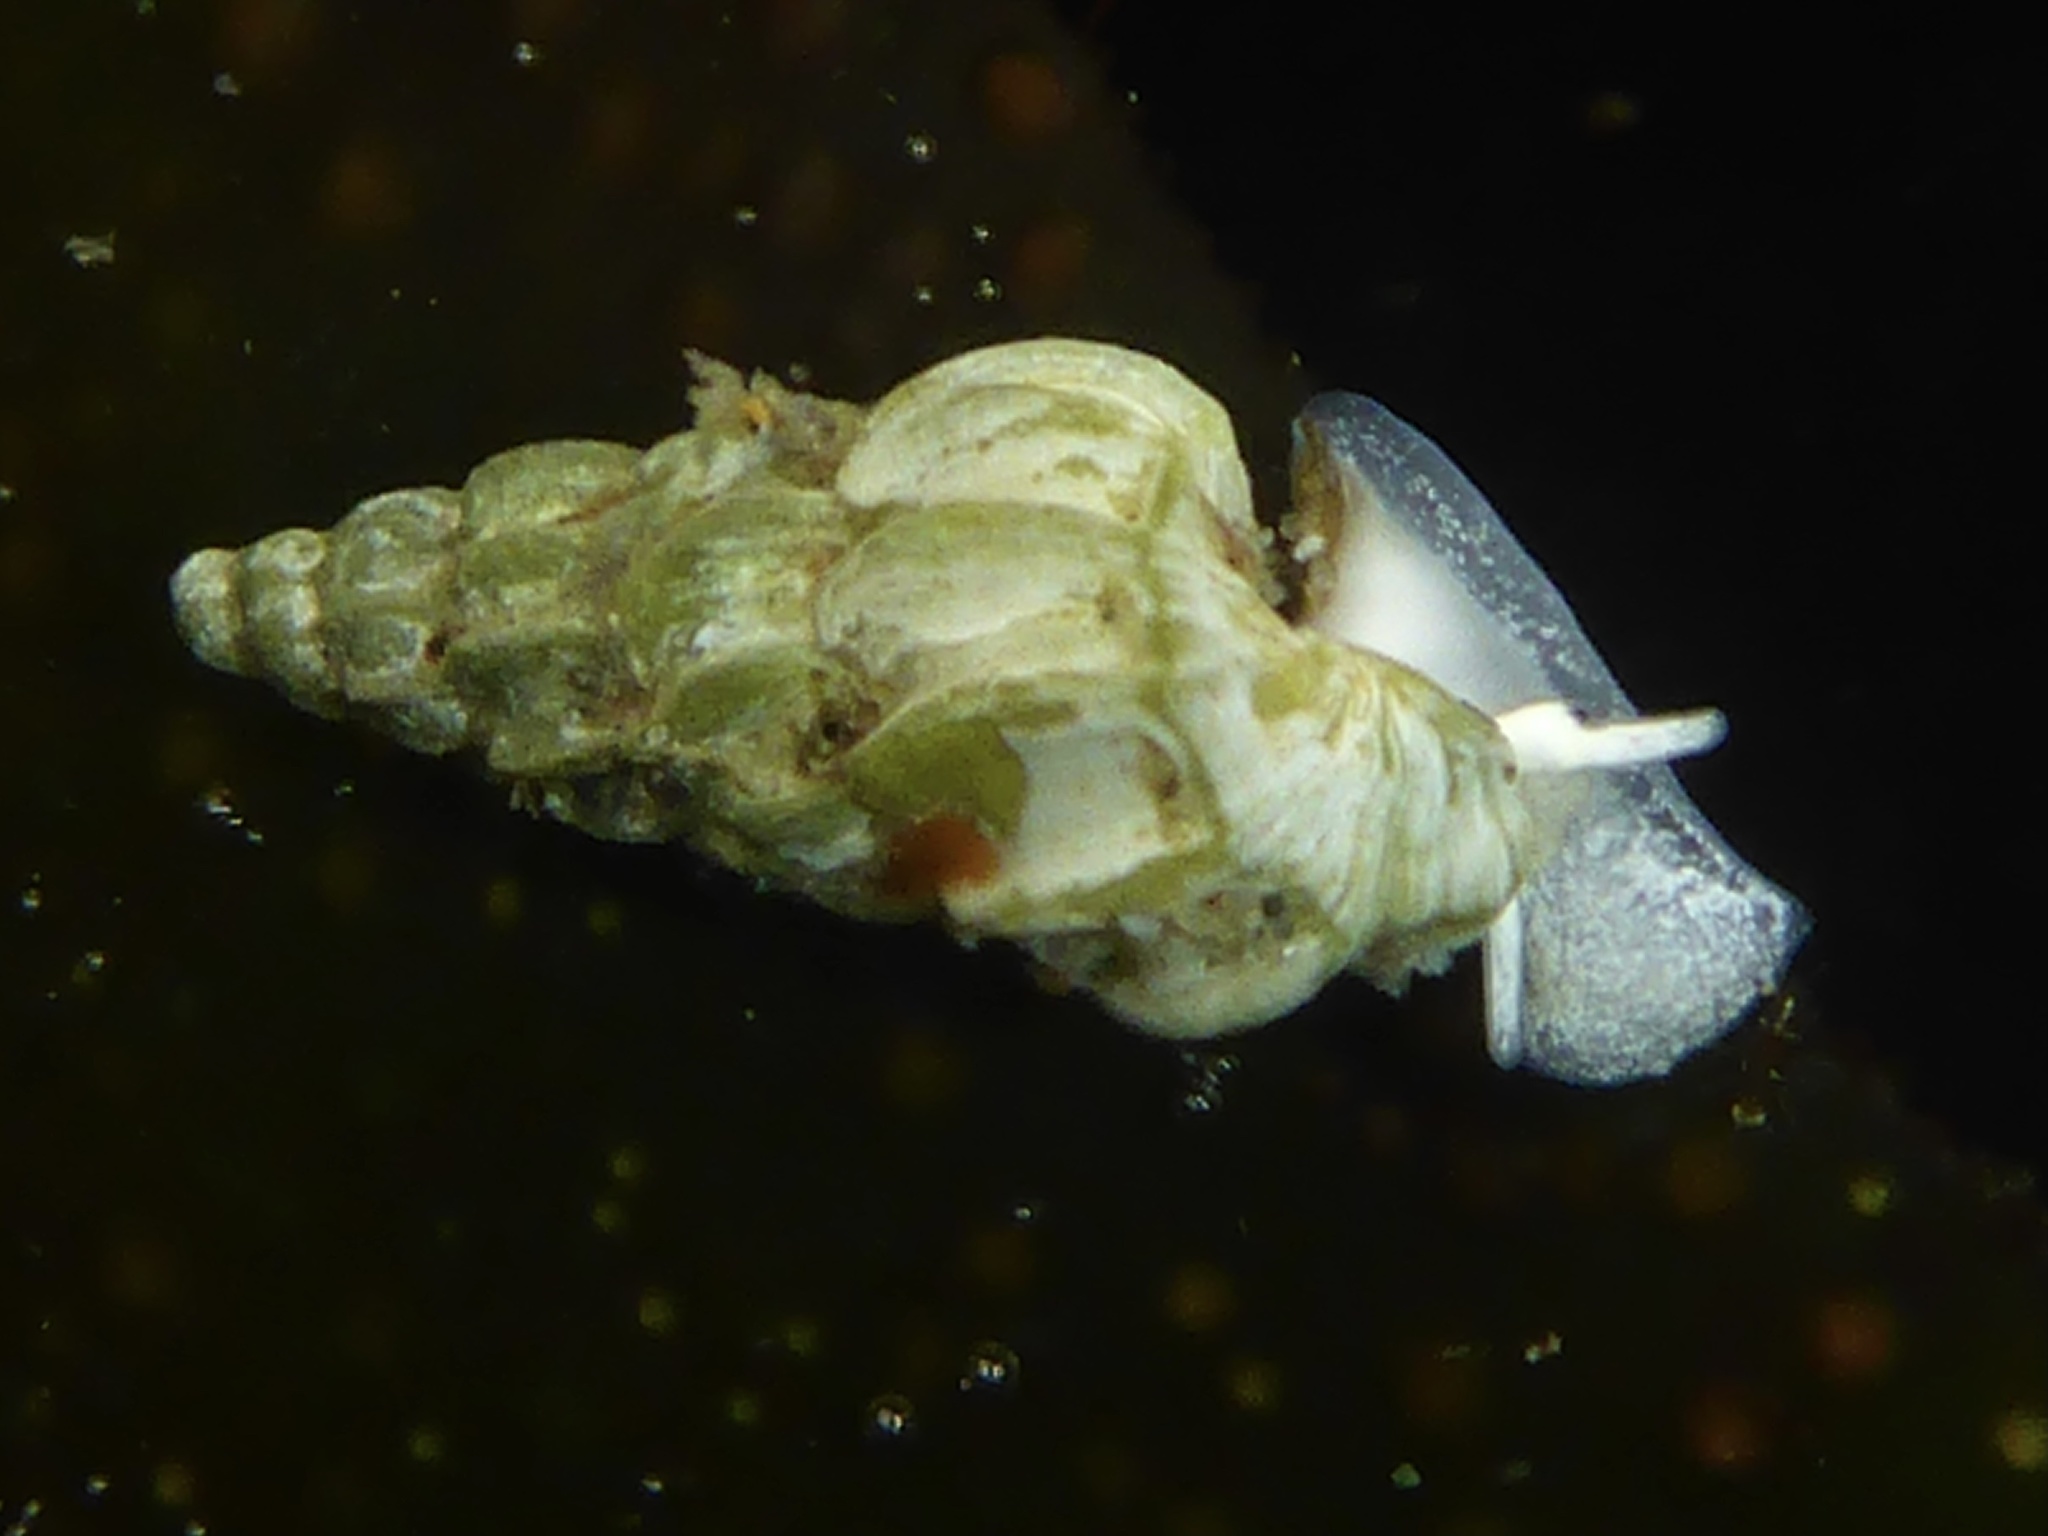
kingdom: Animalia
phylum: Mollusca
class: Gastropoda
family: Epitoniidae
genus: Opalia
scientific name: Opalia wroblewskyi
